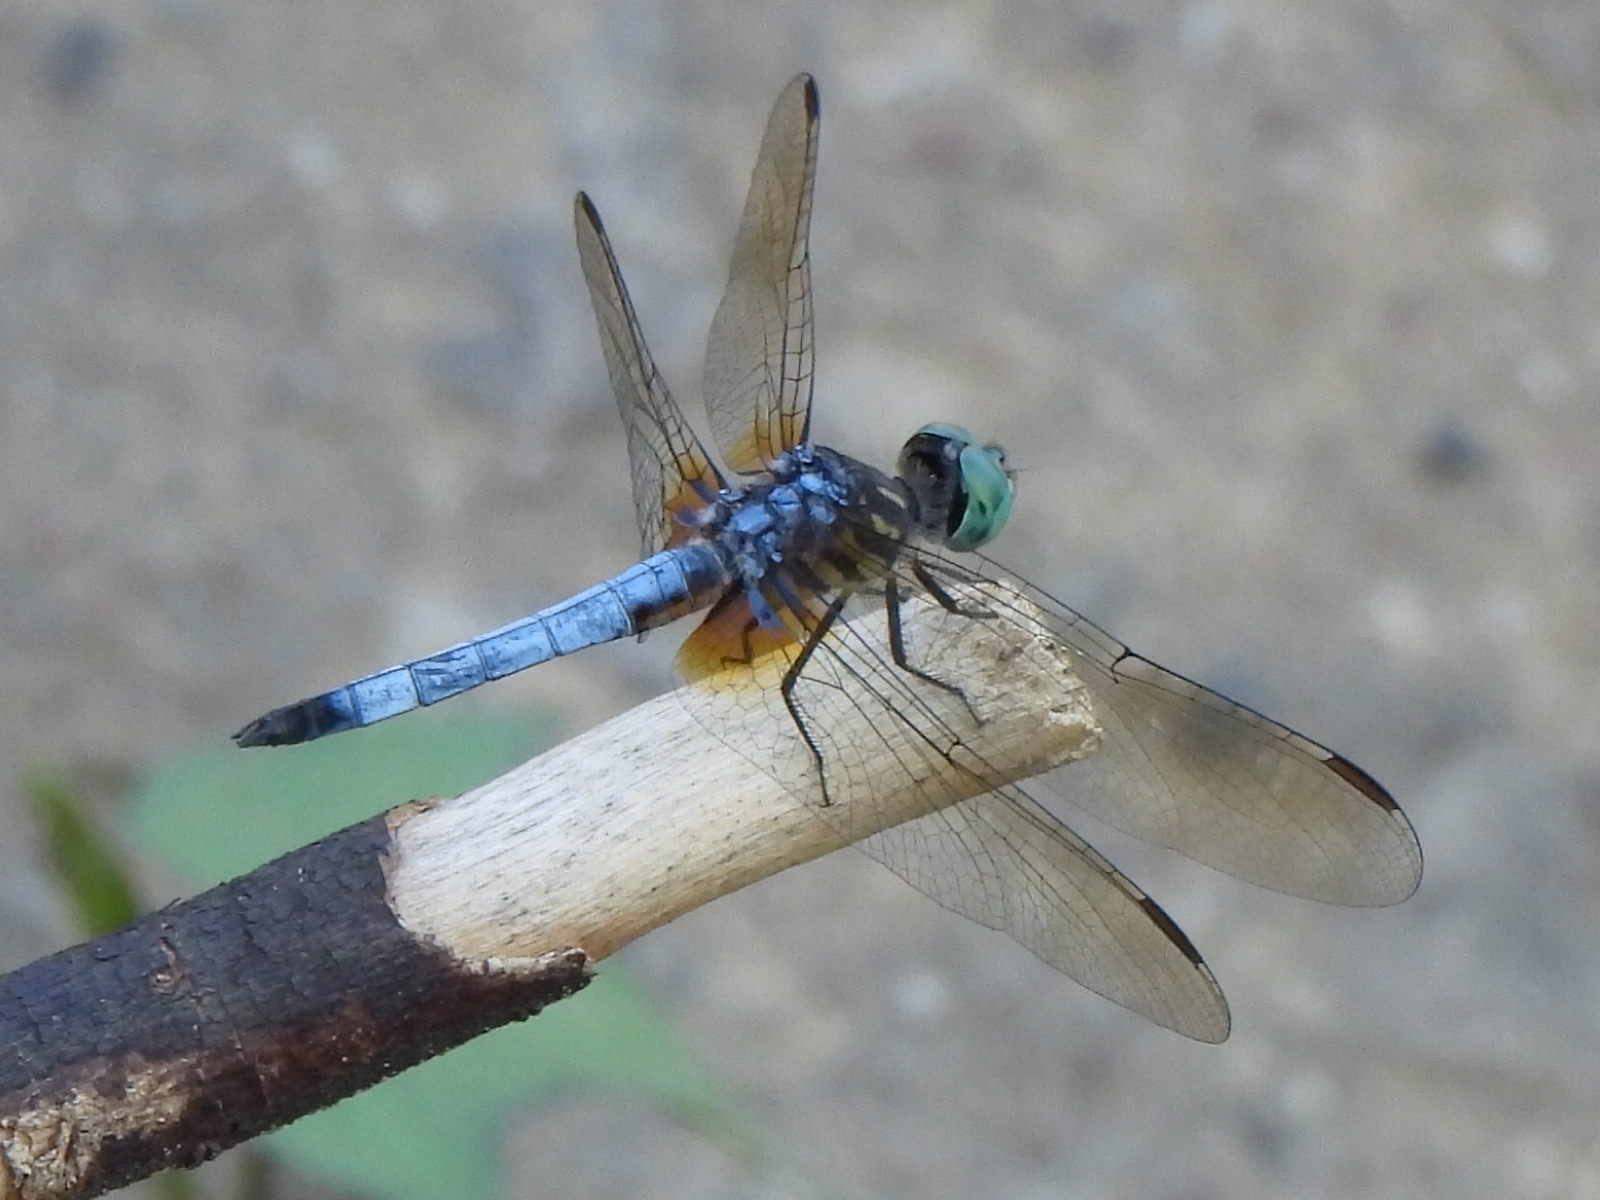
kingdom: Animalia
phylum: Arthropoda
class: Insecta
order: Odonata
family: Libellulidae
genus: Pachydiplax
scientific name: Pachydiplax longipennis
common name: Blue dasher
